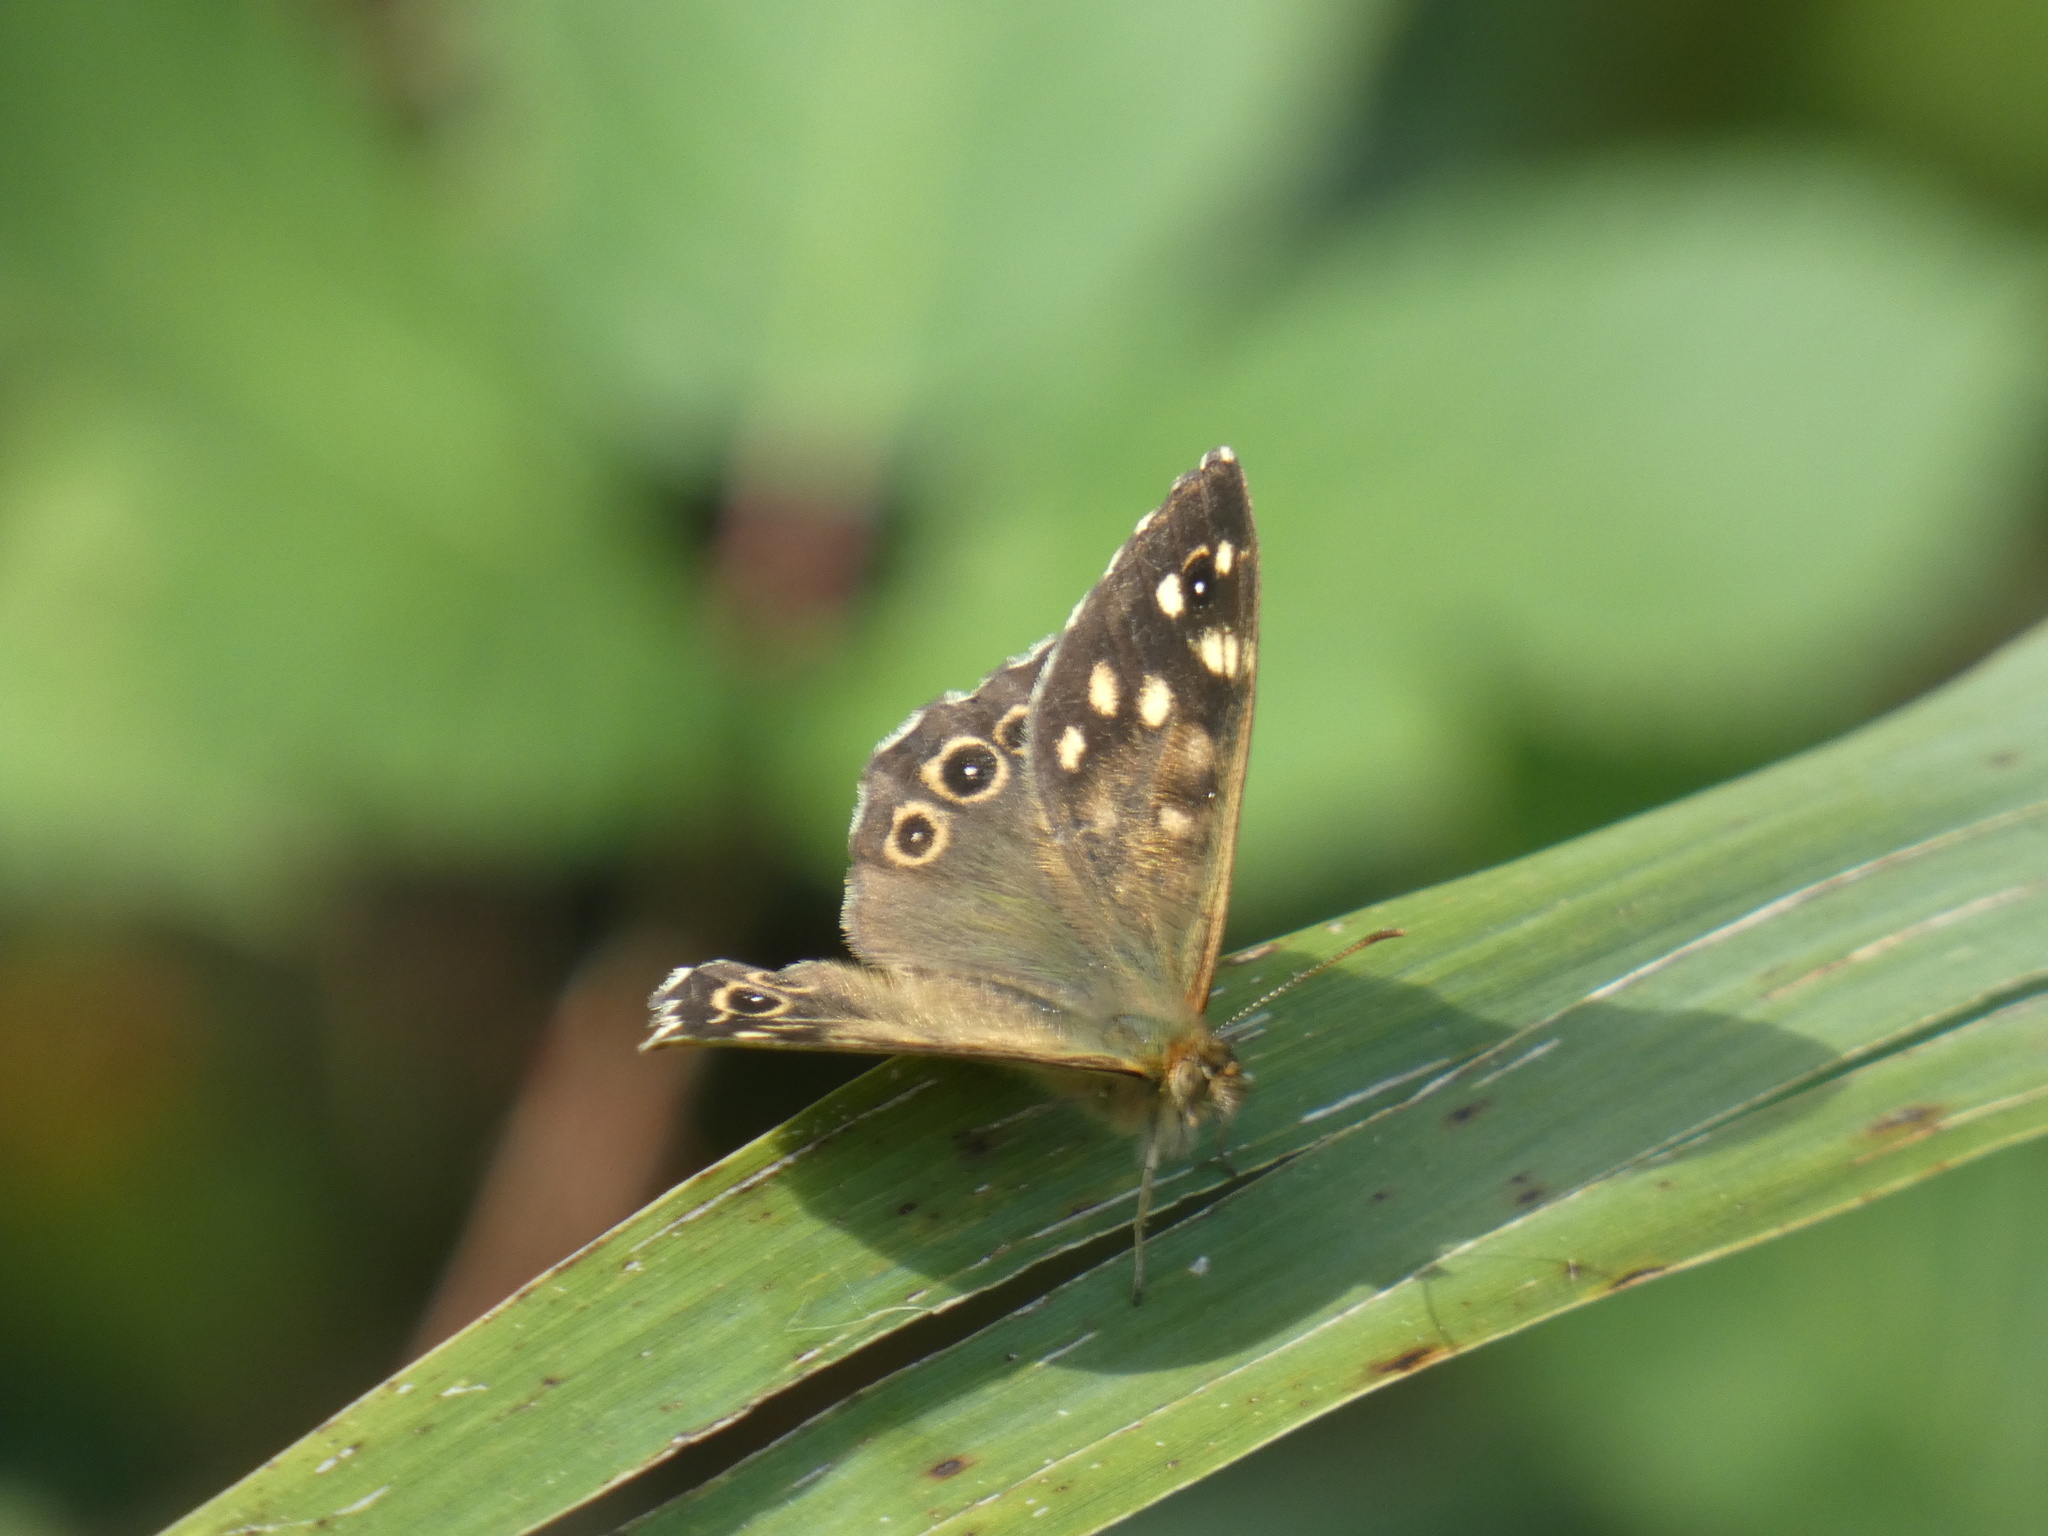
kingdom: Animalia
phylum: Arthropoda
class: Insecta
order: Lepidoptera
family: Nymphalidae
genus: Pararge
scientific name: Pararge aegeria
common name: Speckled wood
